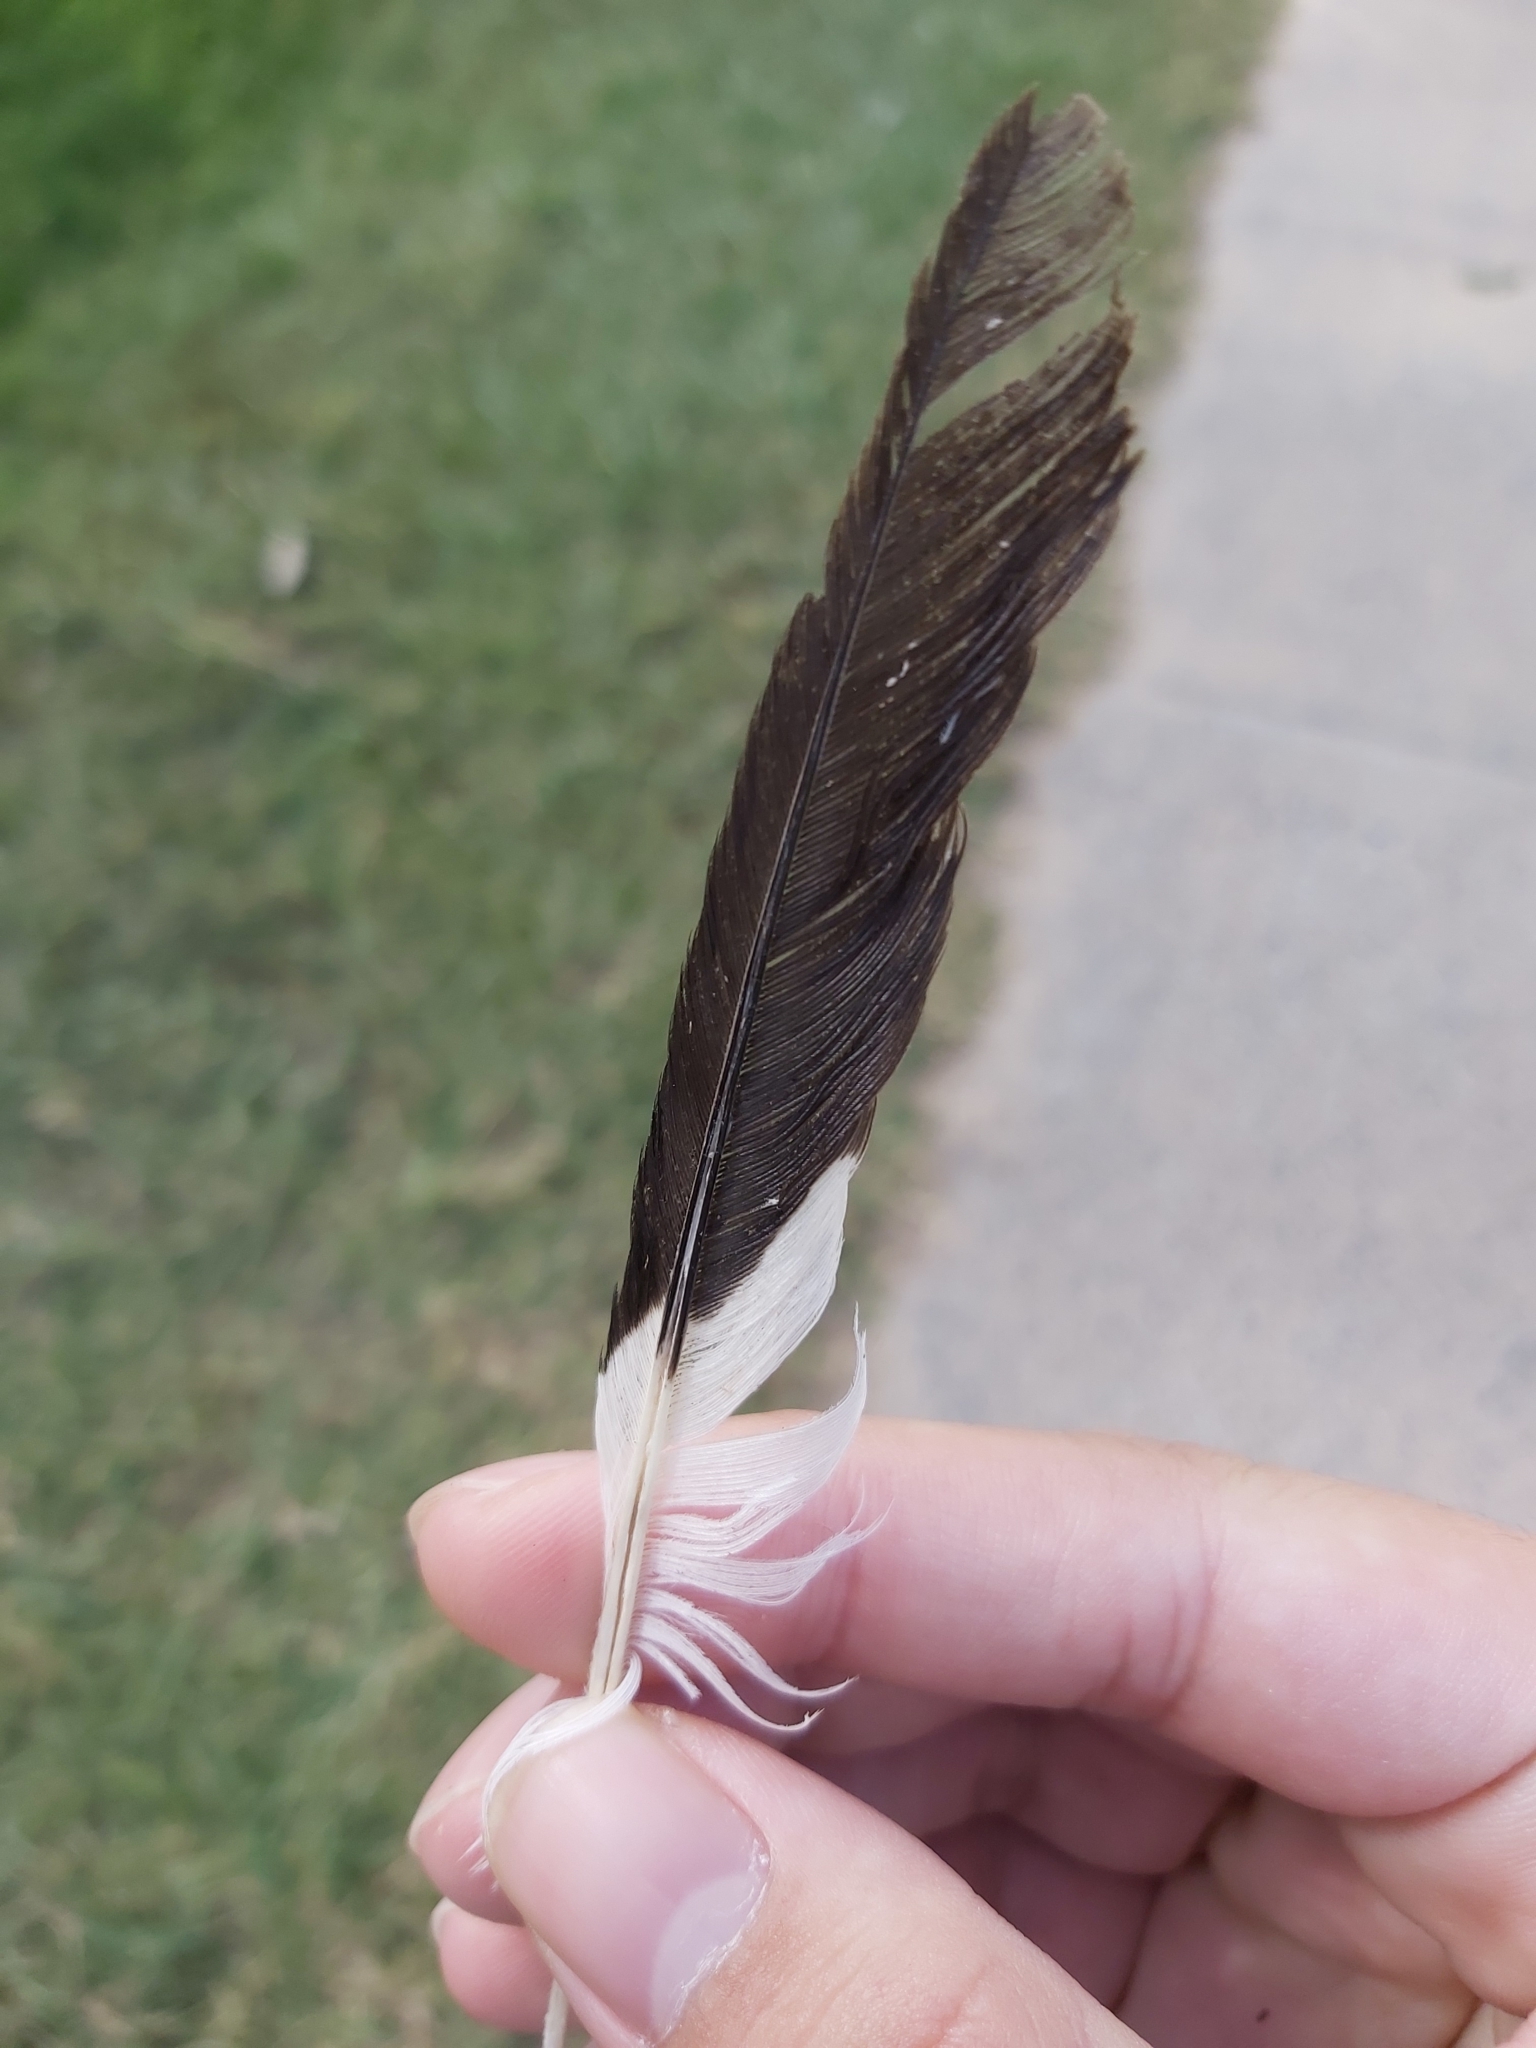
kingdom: Animalia
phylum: Chordata
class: Aves
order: Passeriformes
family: Sturnidae
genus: Acridotheres
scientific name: Acridotheres tristis
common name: Common myna
